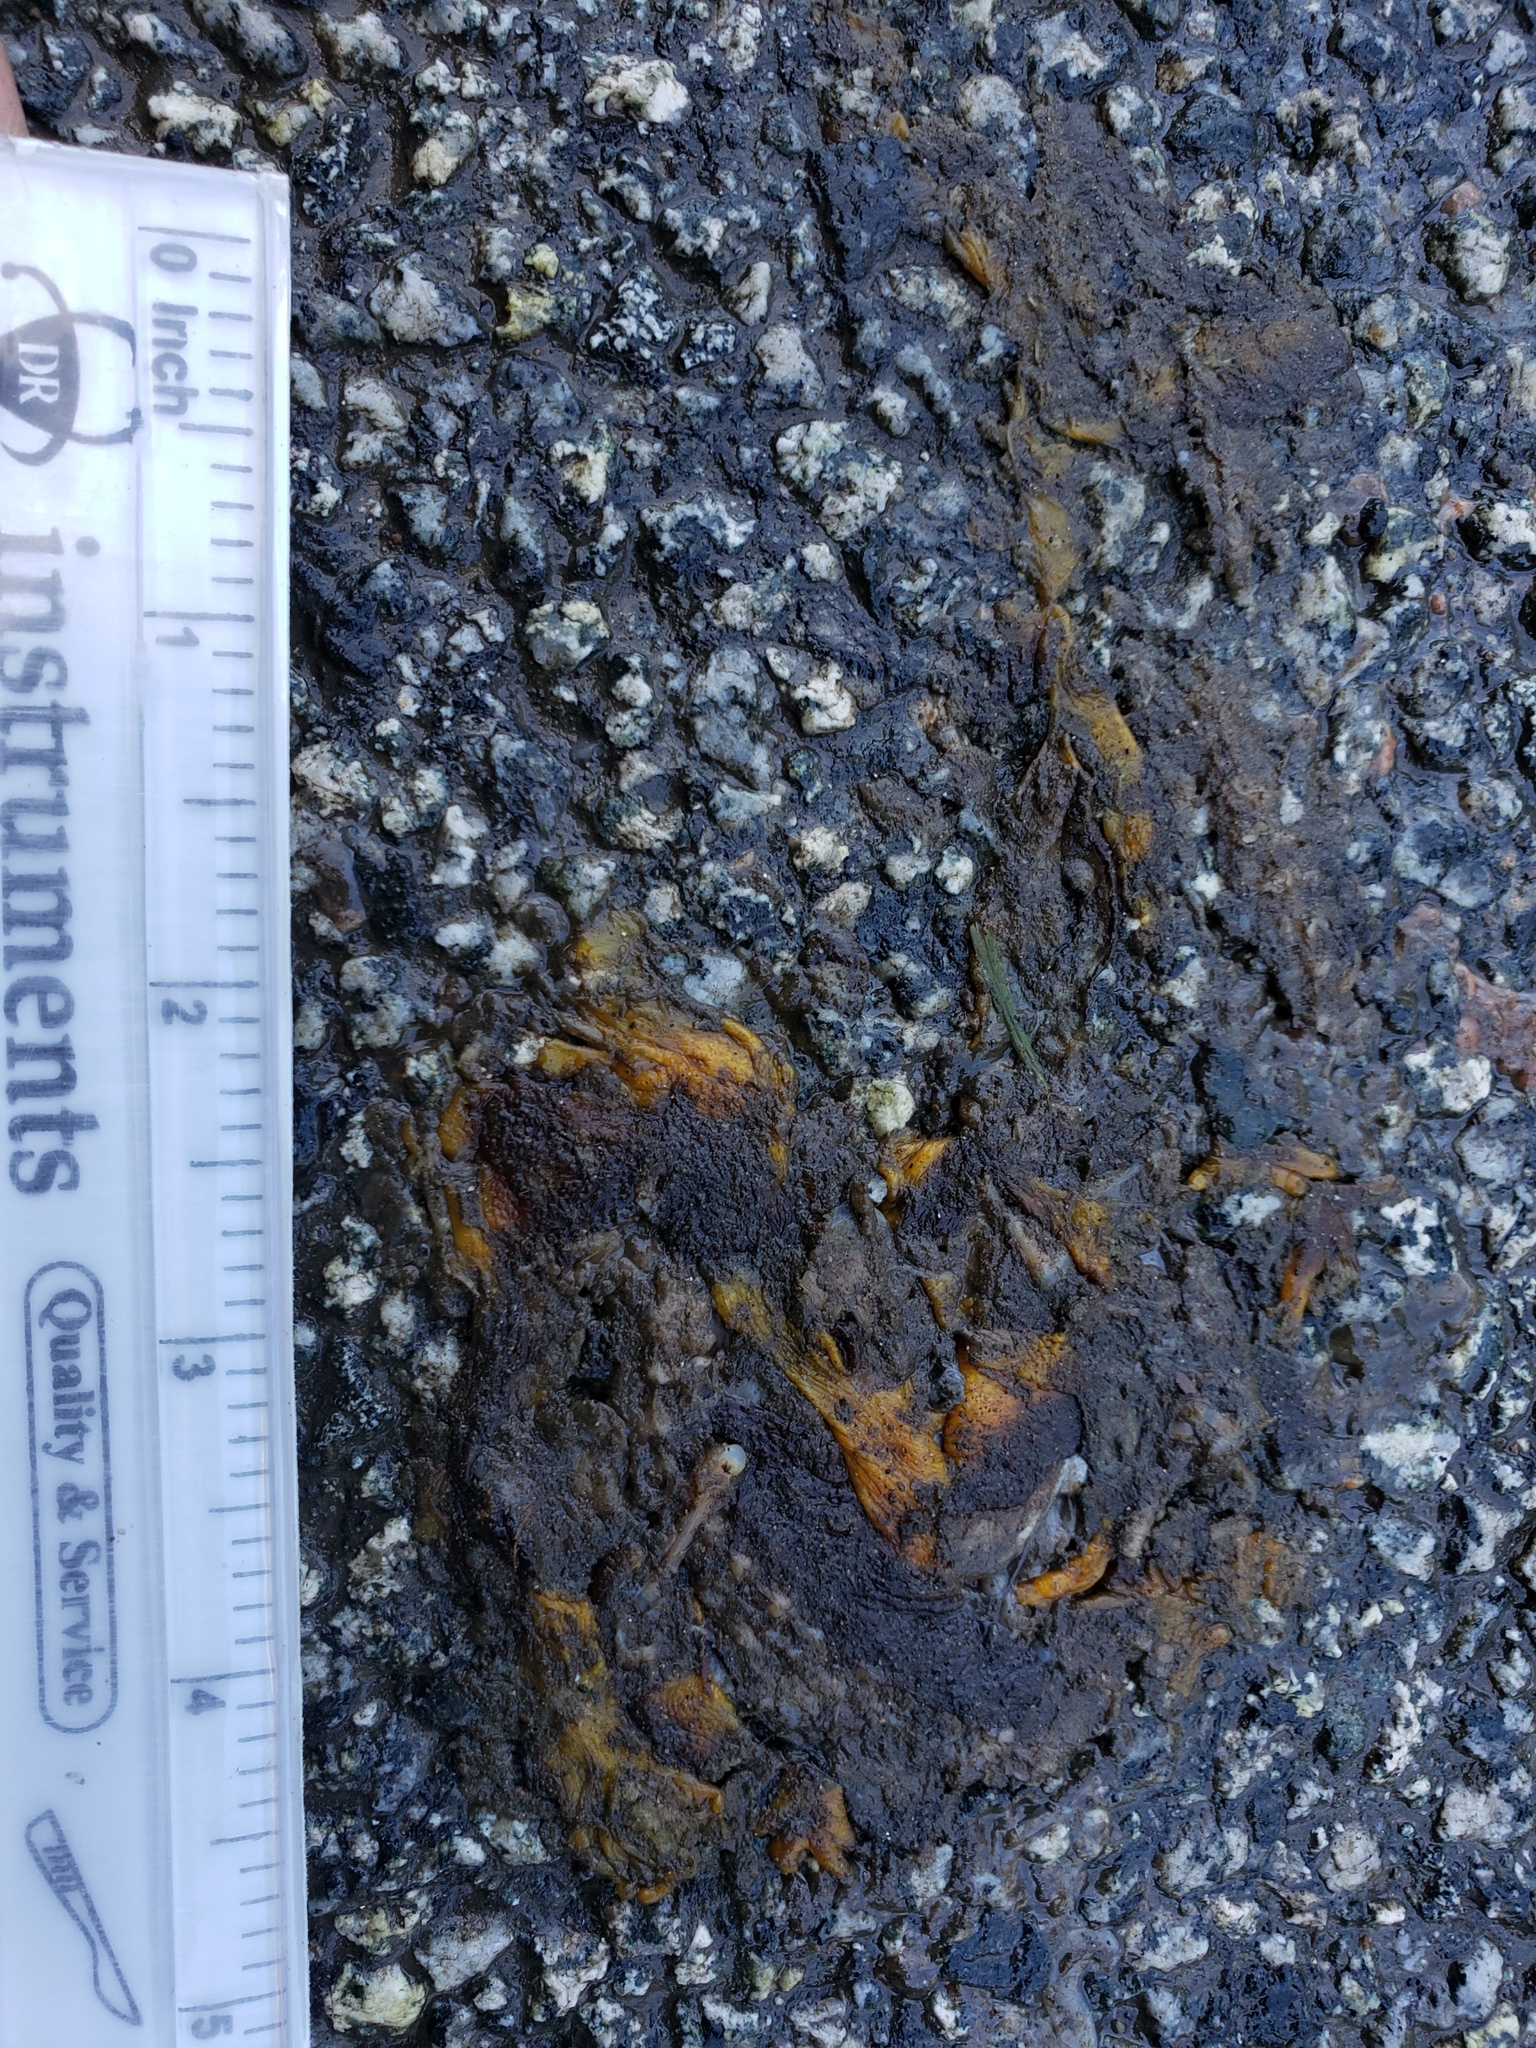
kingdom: Animalia
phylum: Chordata
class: Amphibia
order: Caudata
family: Salamandridae
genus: Taricha
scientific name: Taricha
